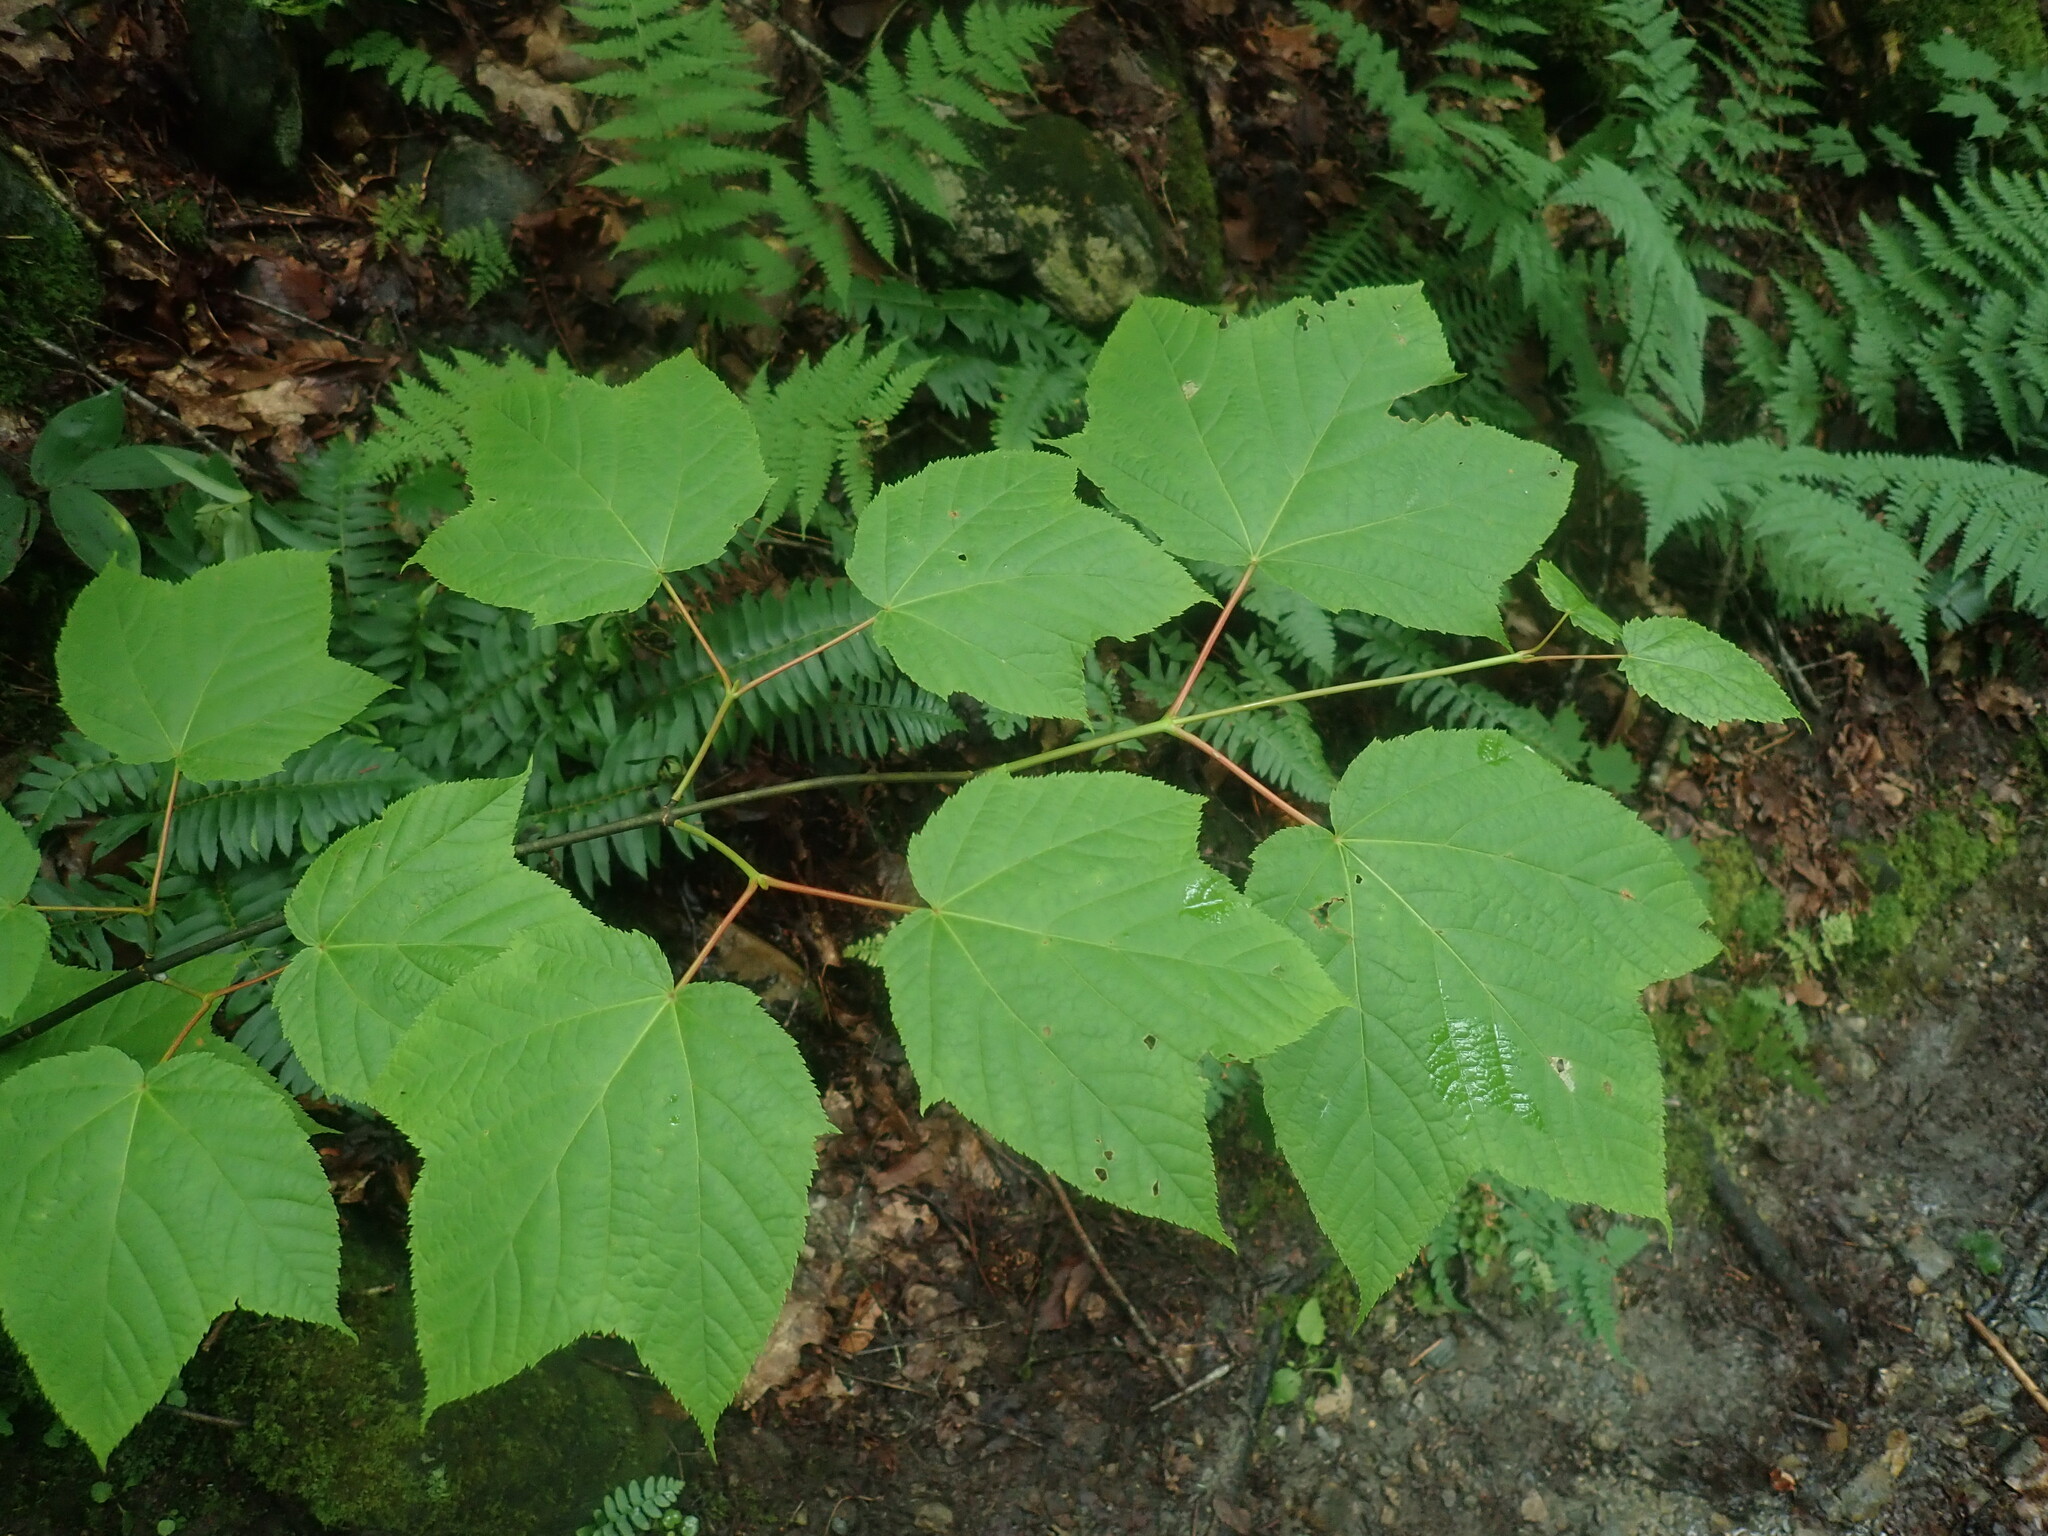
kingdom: Plantae
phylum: Tracheophyta
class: Magnoliopsida
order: Sapindales
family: Sapindaceae
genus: Acer
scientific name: Acer pensylvanicum
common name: Moosewood
